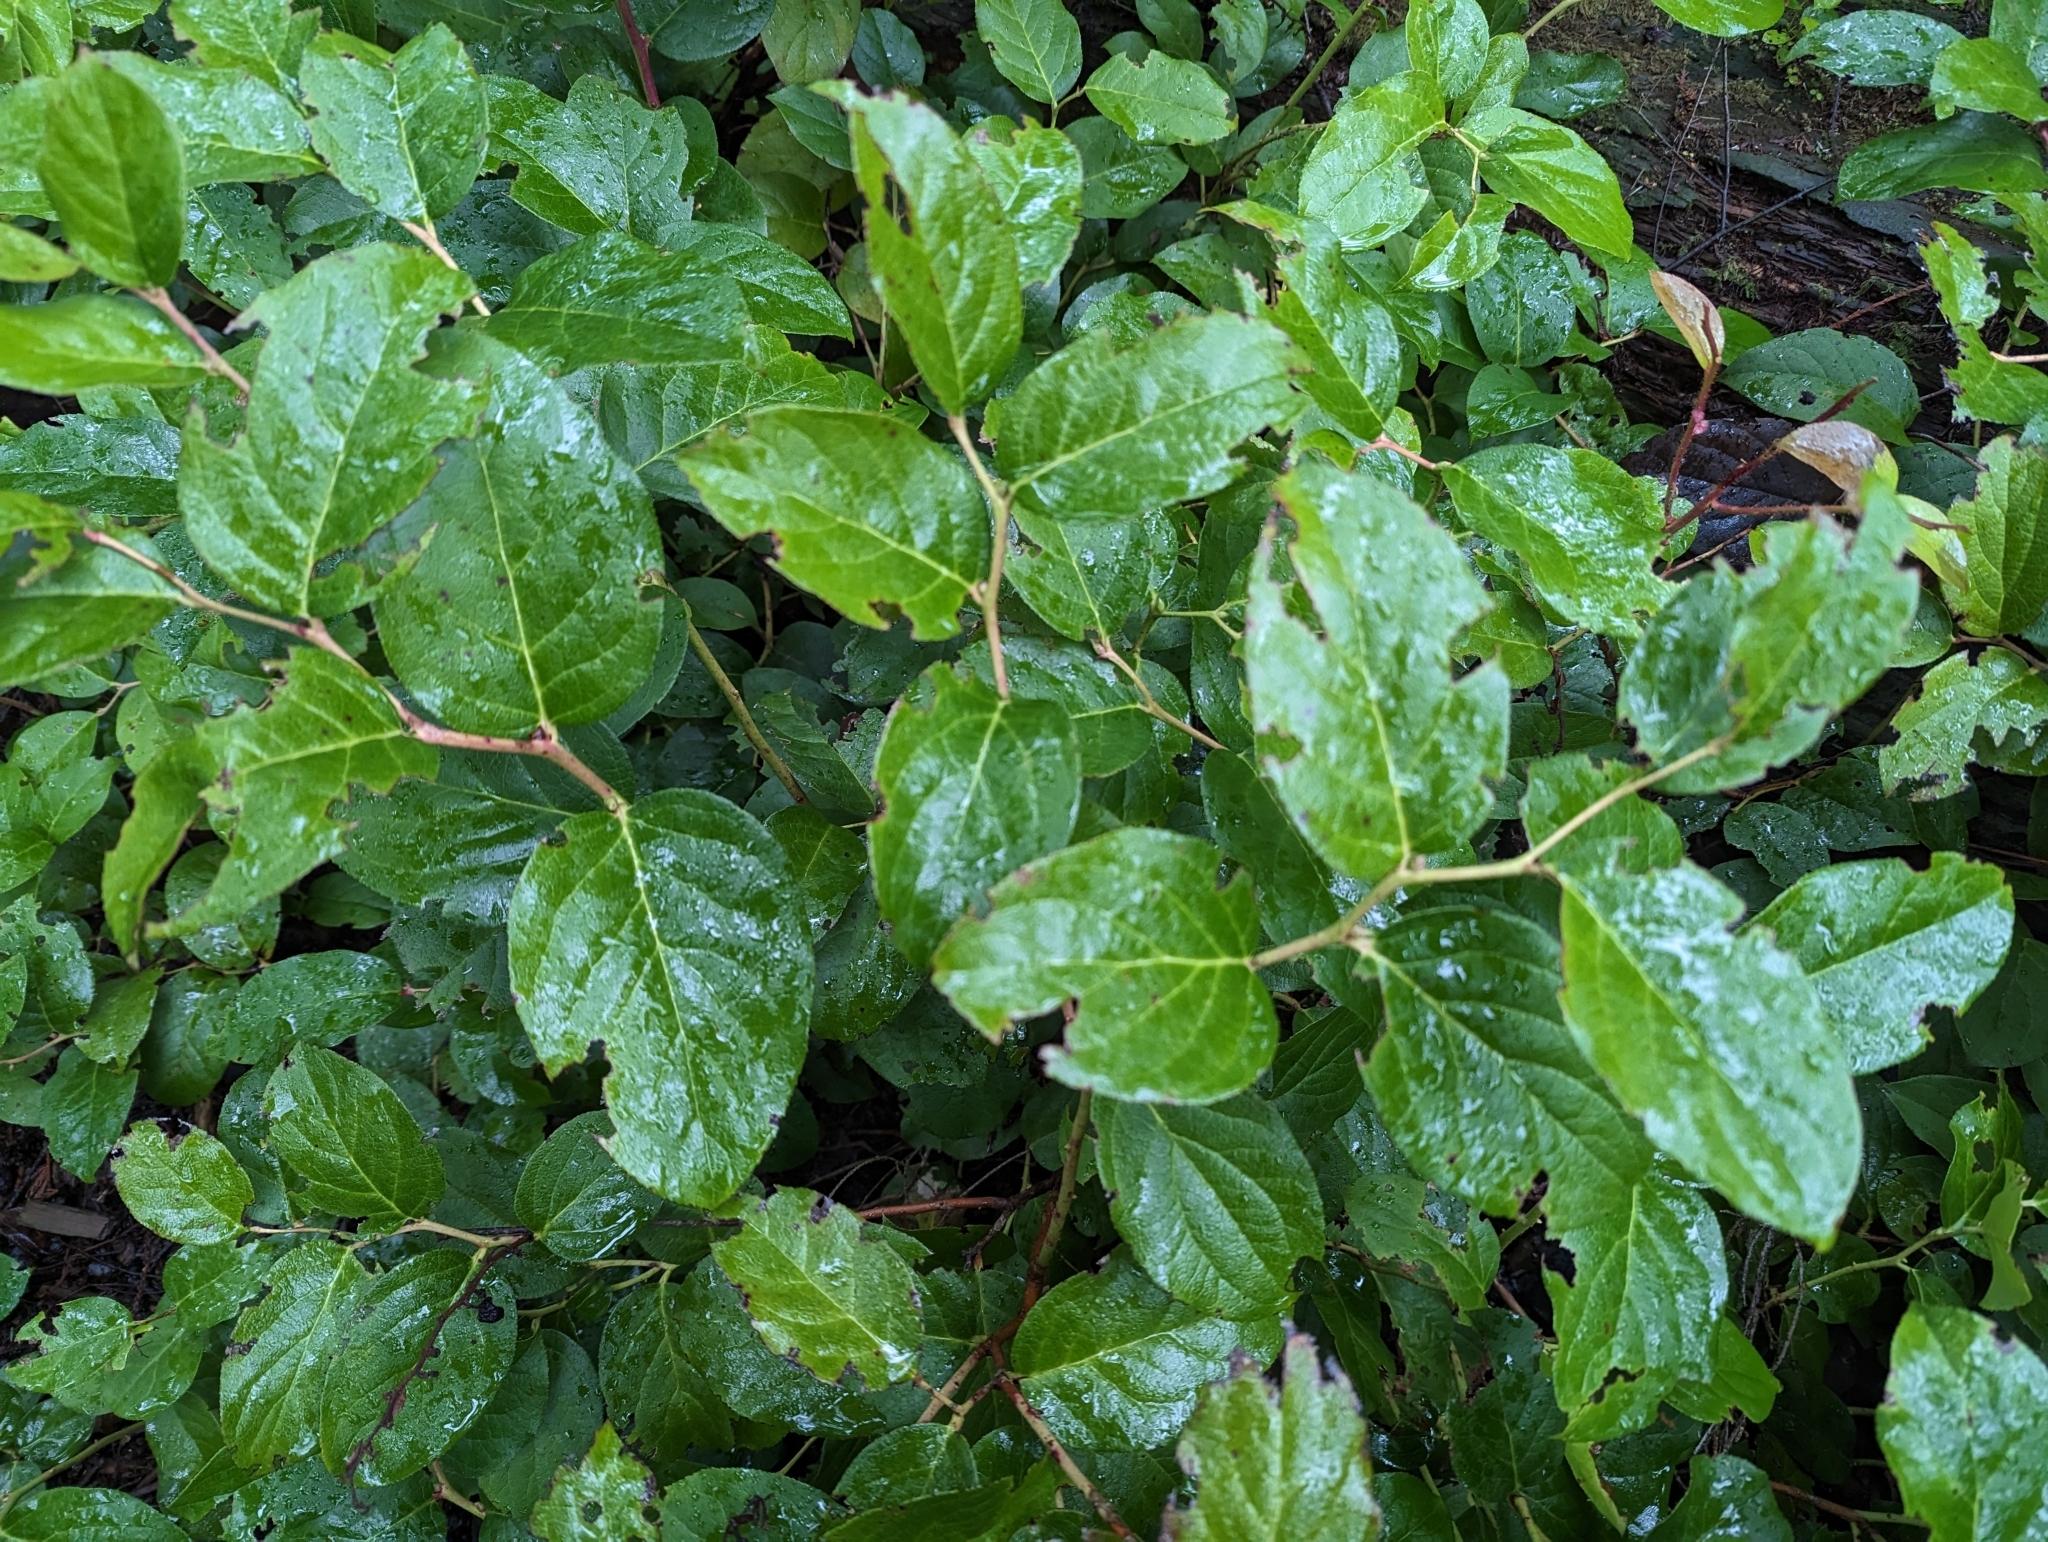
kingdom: Plantae
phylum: Tracheophyta
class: Magnoliopsida
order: Ericales
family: Ericaceae
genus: Gaultheria
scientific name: Gaultheria shallon
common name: Shallon
